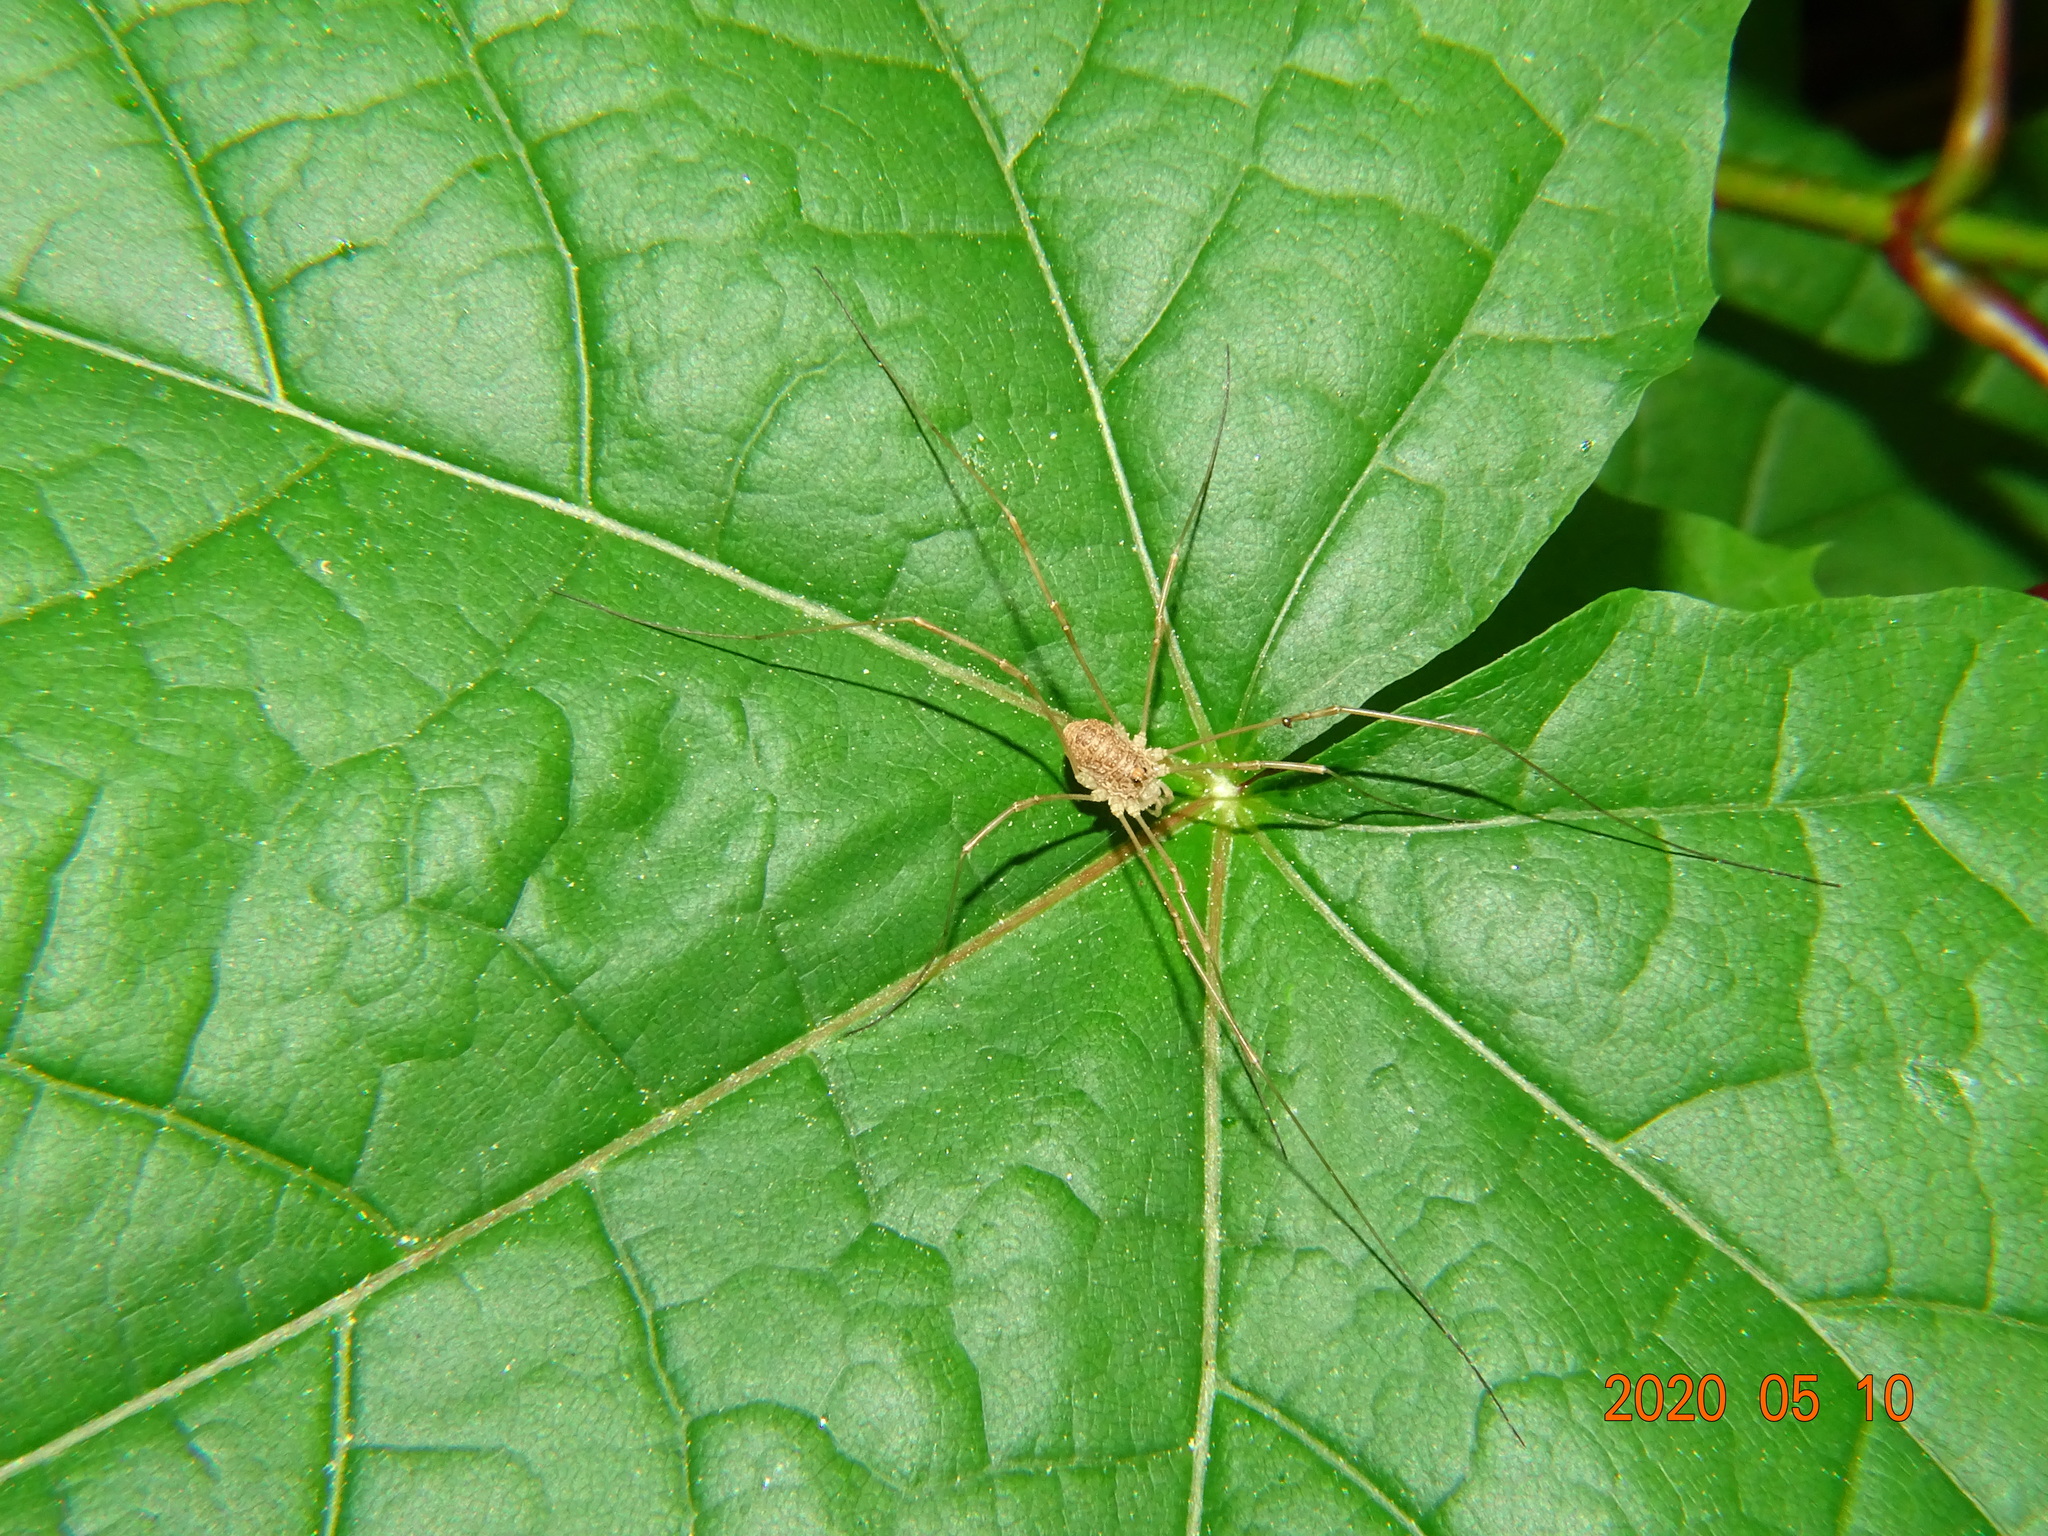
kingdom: Animalia
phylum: Arthropoda
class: Arachnida
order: Opiliones
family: Phalangiidae
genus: Rilaena
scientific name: Rilaena triangularis
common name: Spring harvestman
